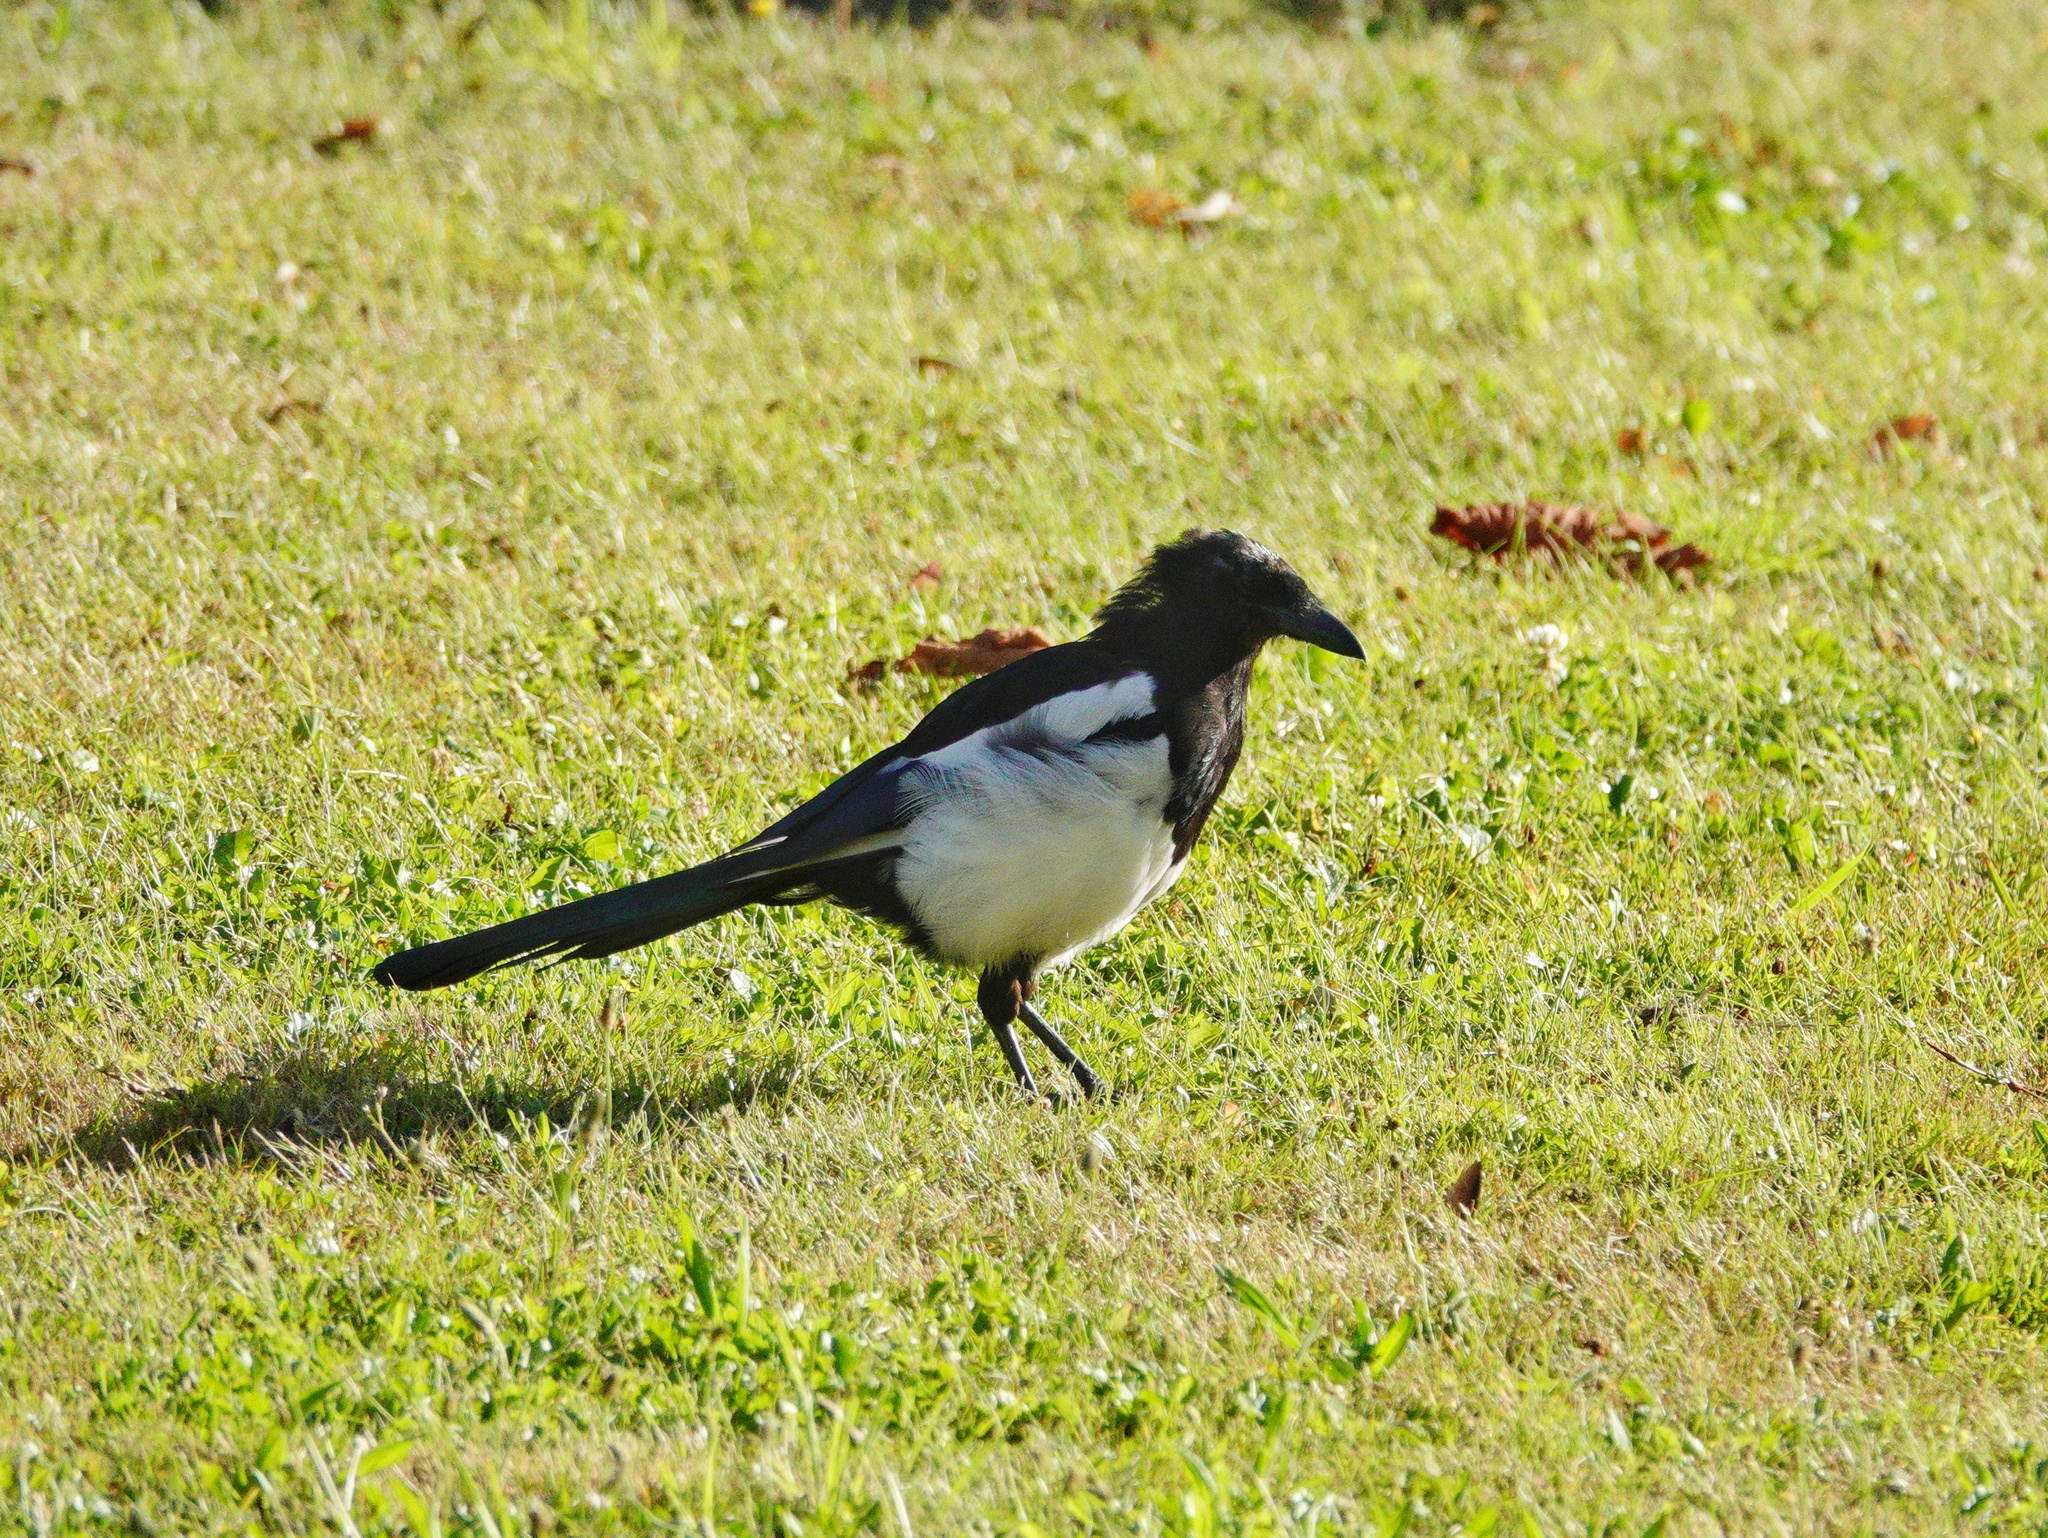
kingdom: Animalia
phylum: Chordata
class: Aves
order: Passeriformes
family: Corvidae
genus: Pica
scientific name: Pica pica
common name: Eurasian magpie
